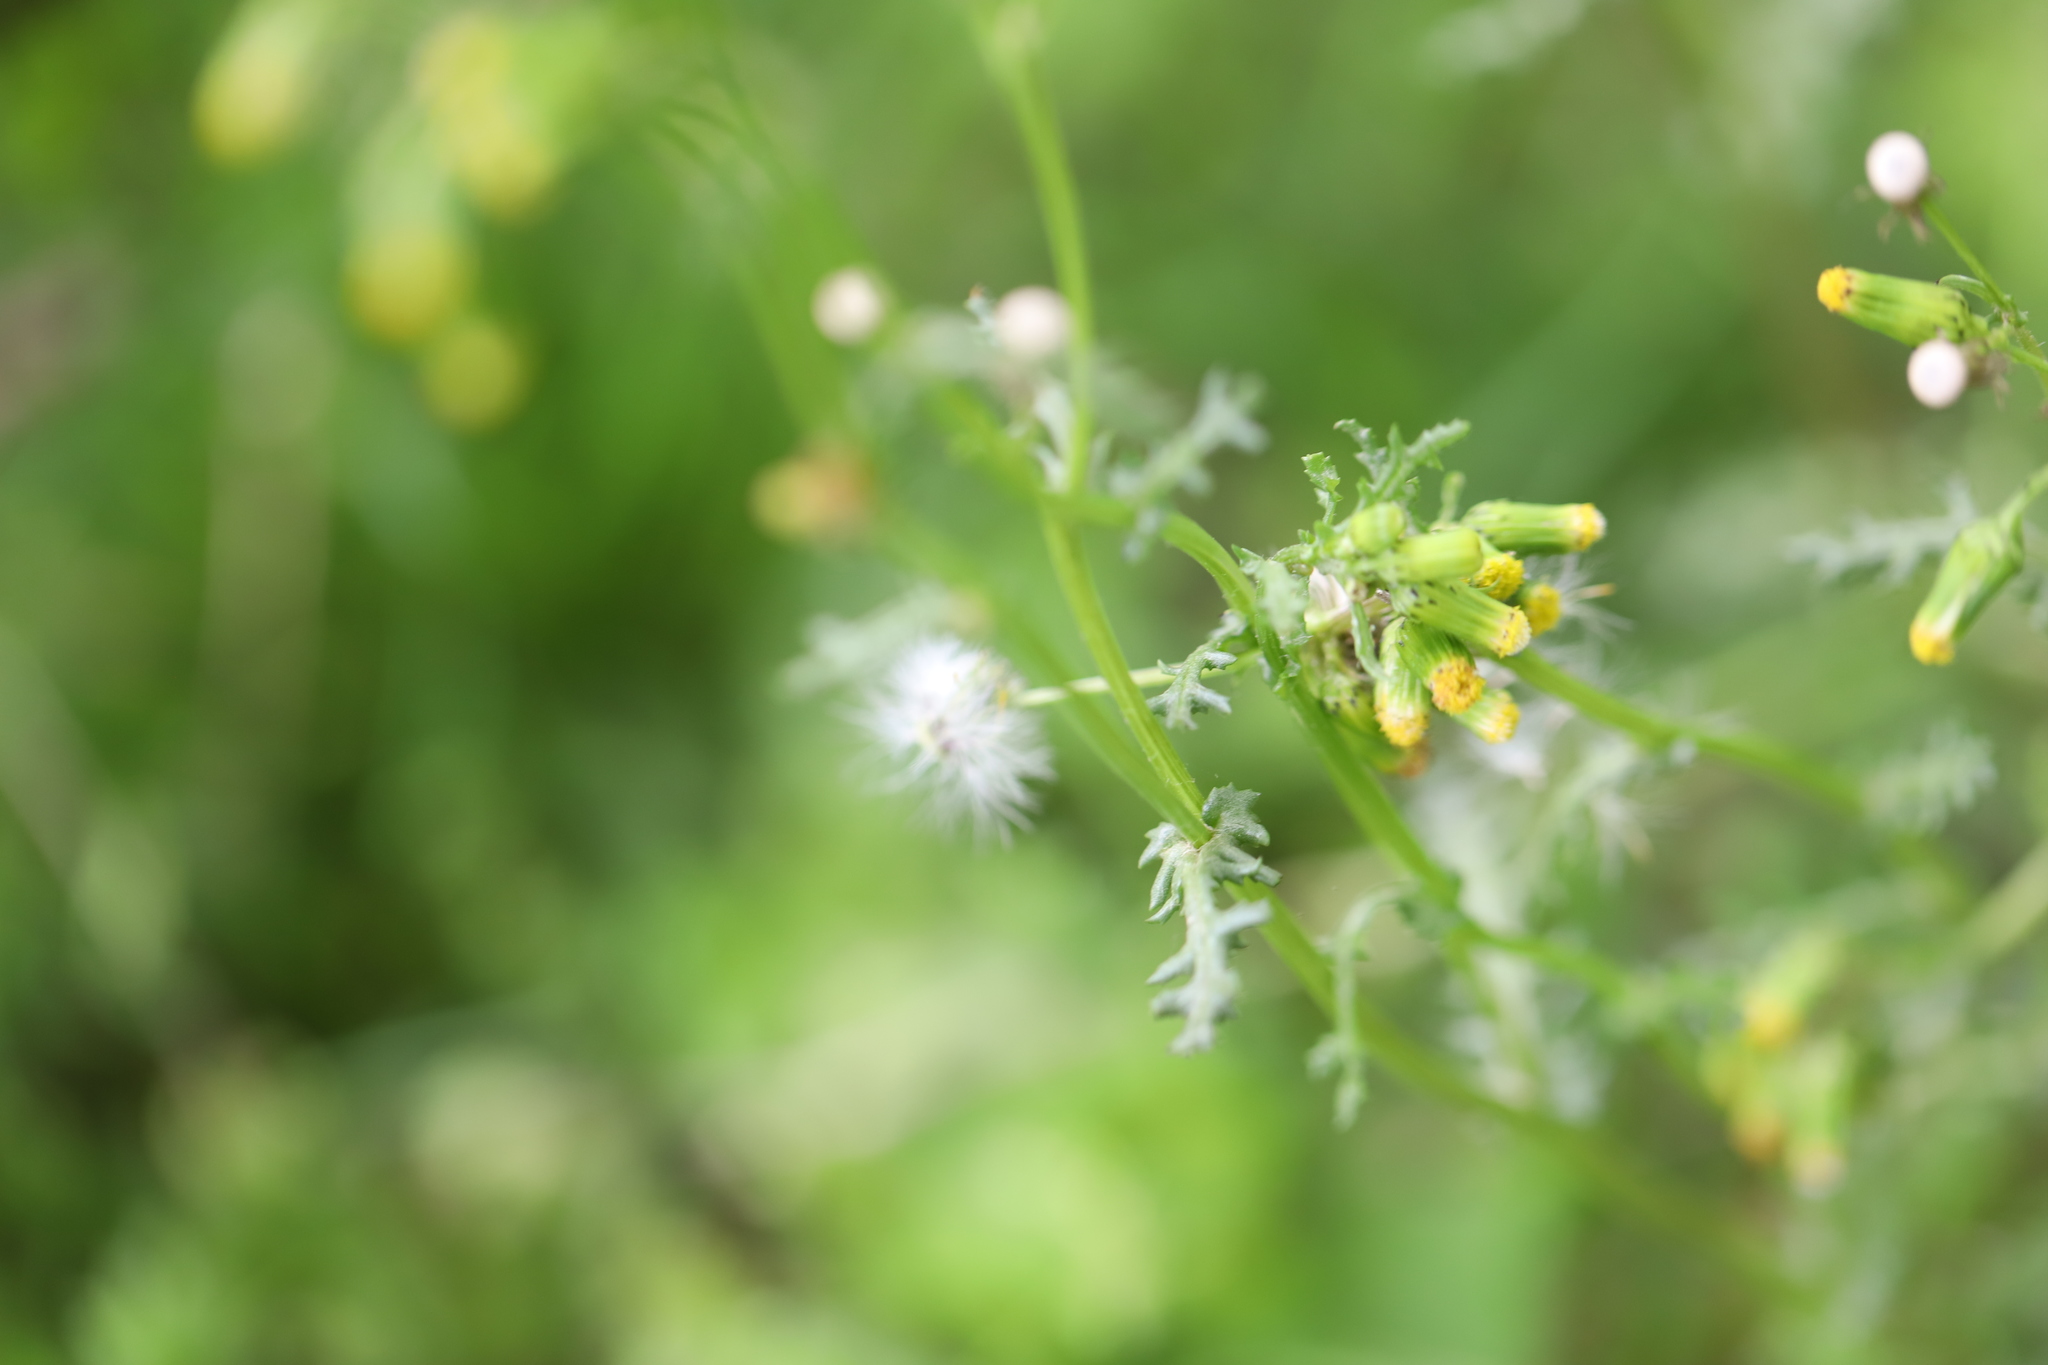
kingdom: Plantae
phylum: Tracheophyta
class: Magnoliopsida
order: Asterales
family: Asteraceae
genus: Senecio
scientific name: Senecio vulgaris
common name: Old-man-in-the-spring
